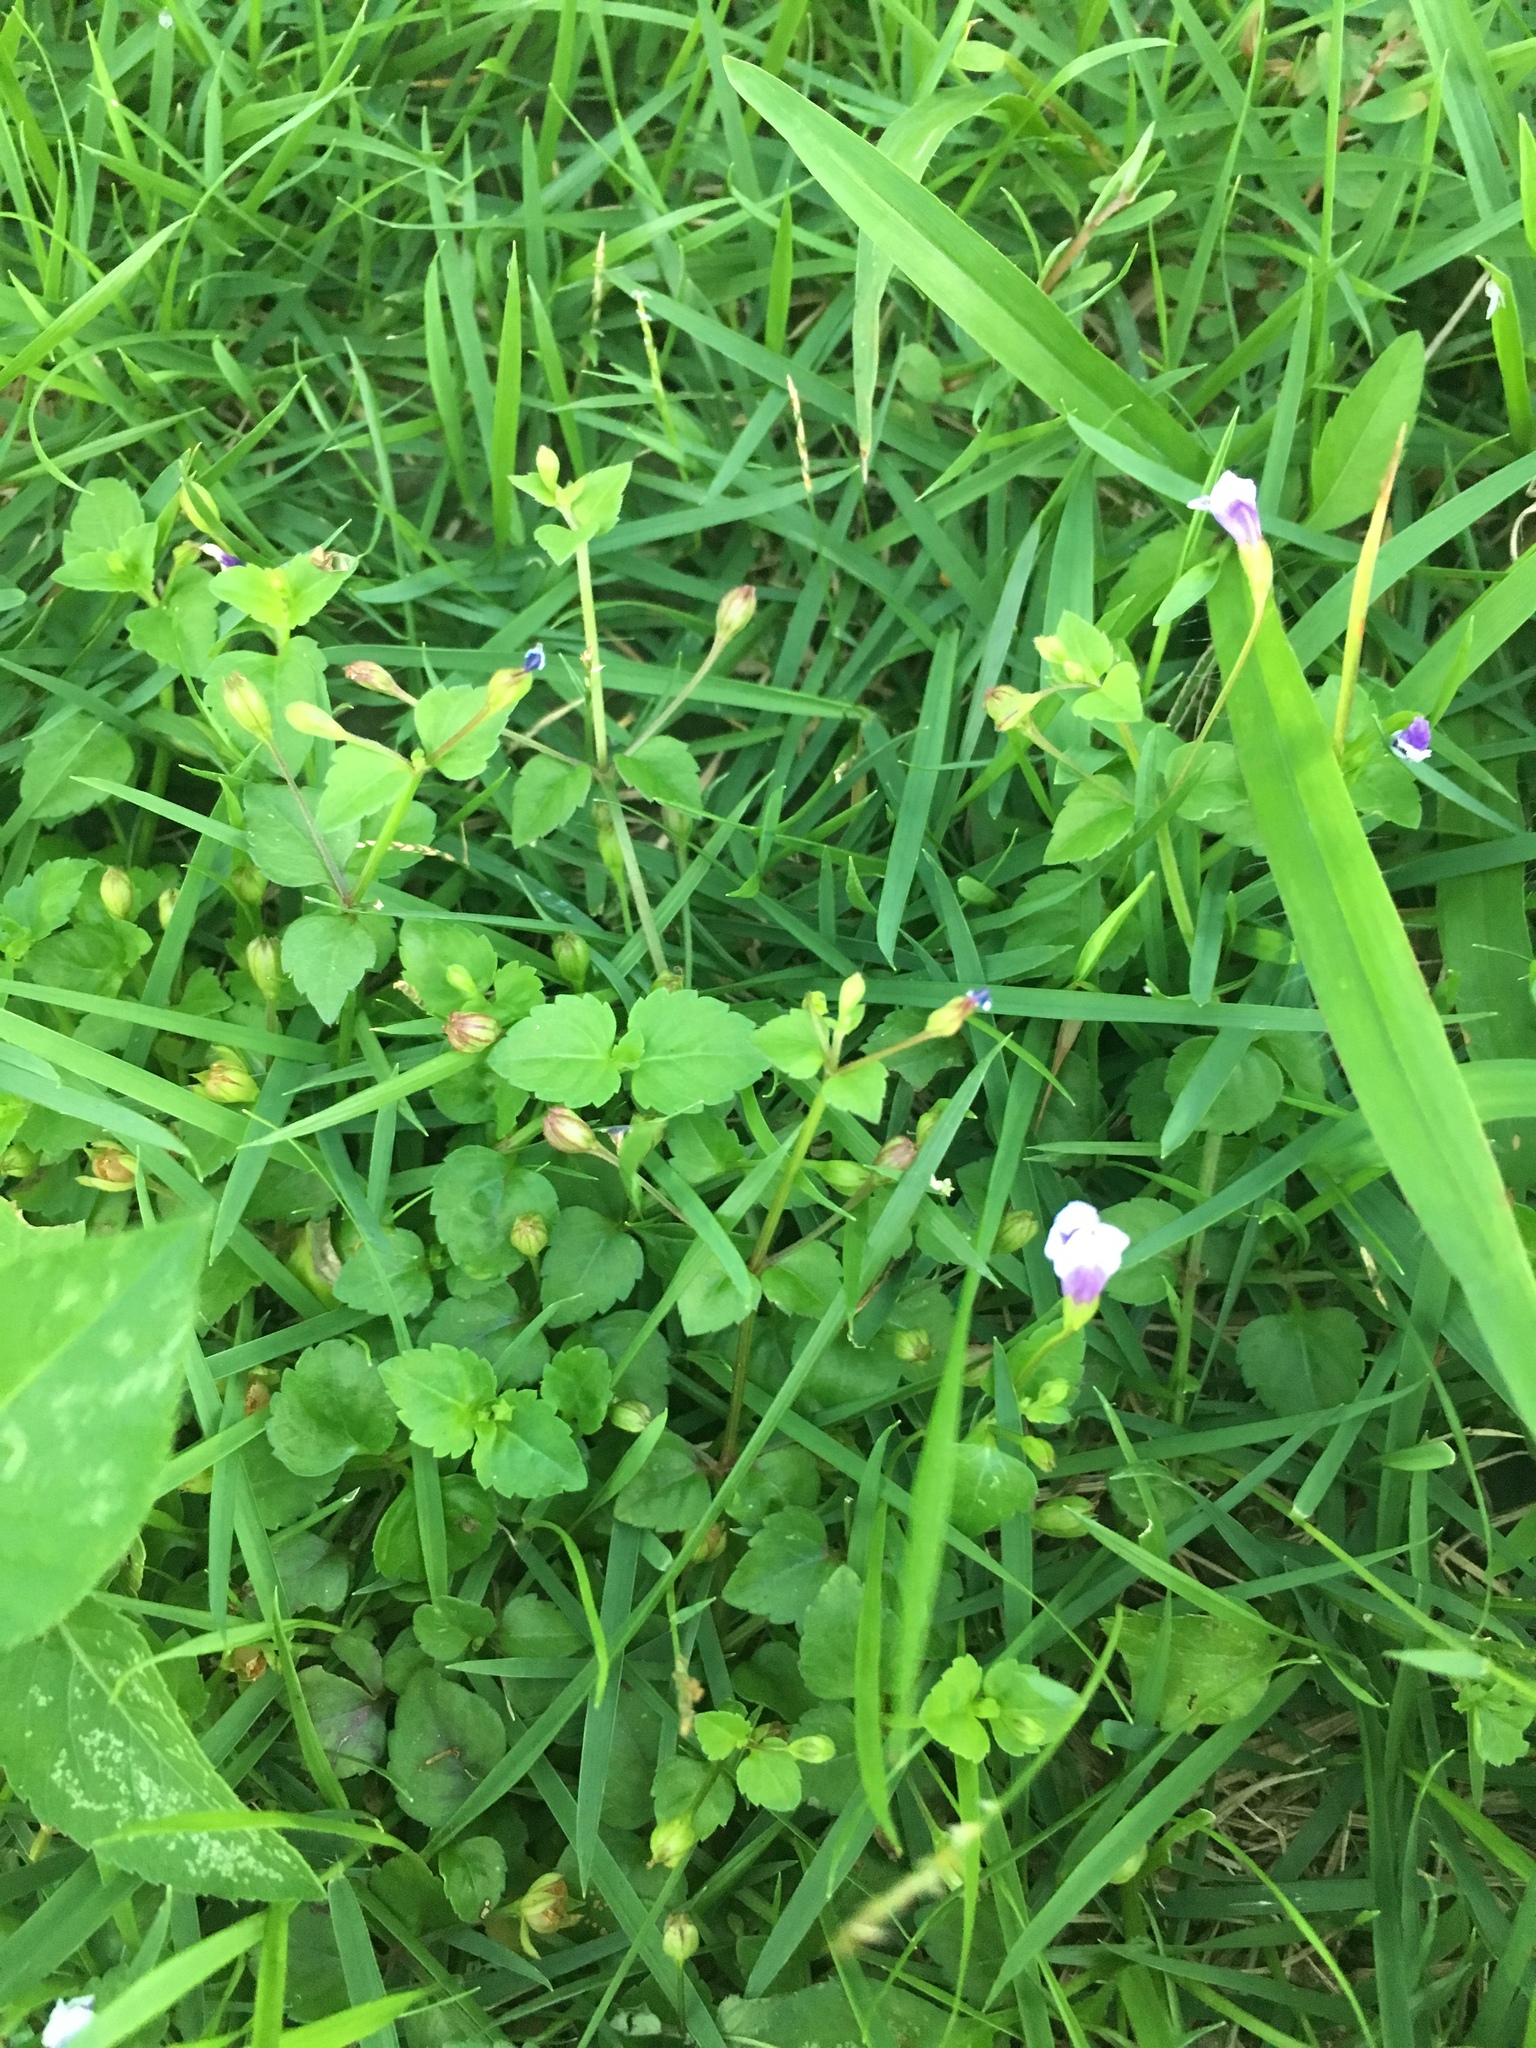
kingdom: Plantae
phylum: Tracheophyta
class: Magnoliopsida
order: Lamiales
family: Linderniaceae
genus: Torenia
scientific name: Torenia crustacea
